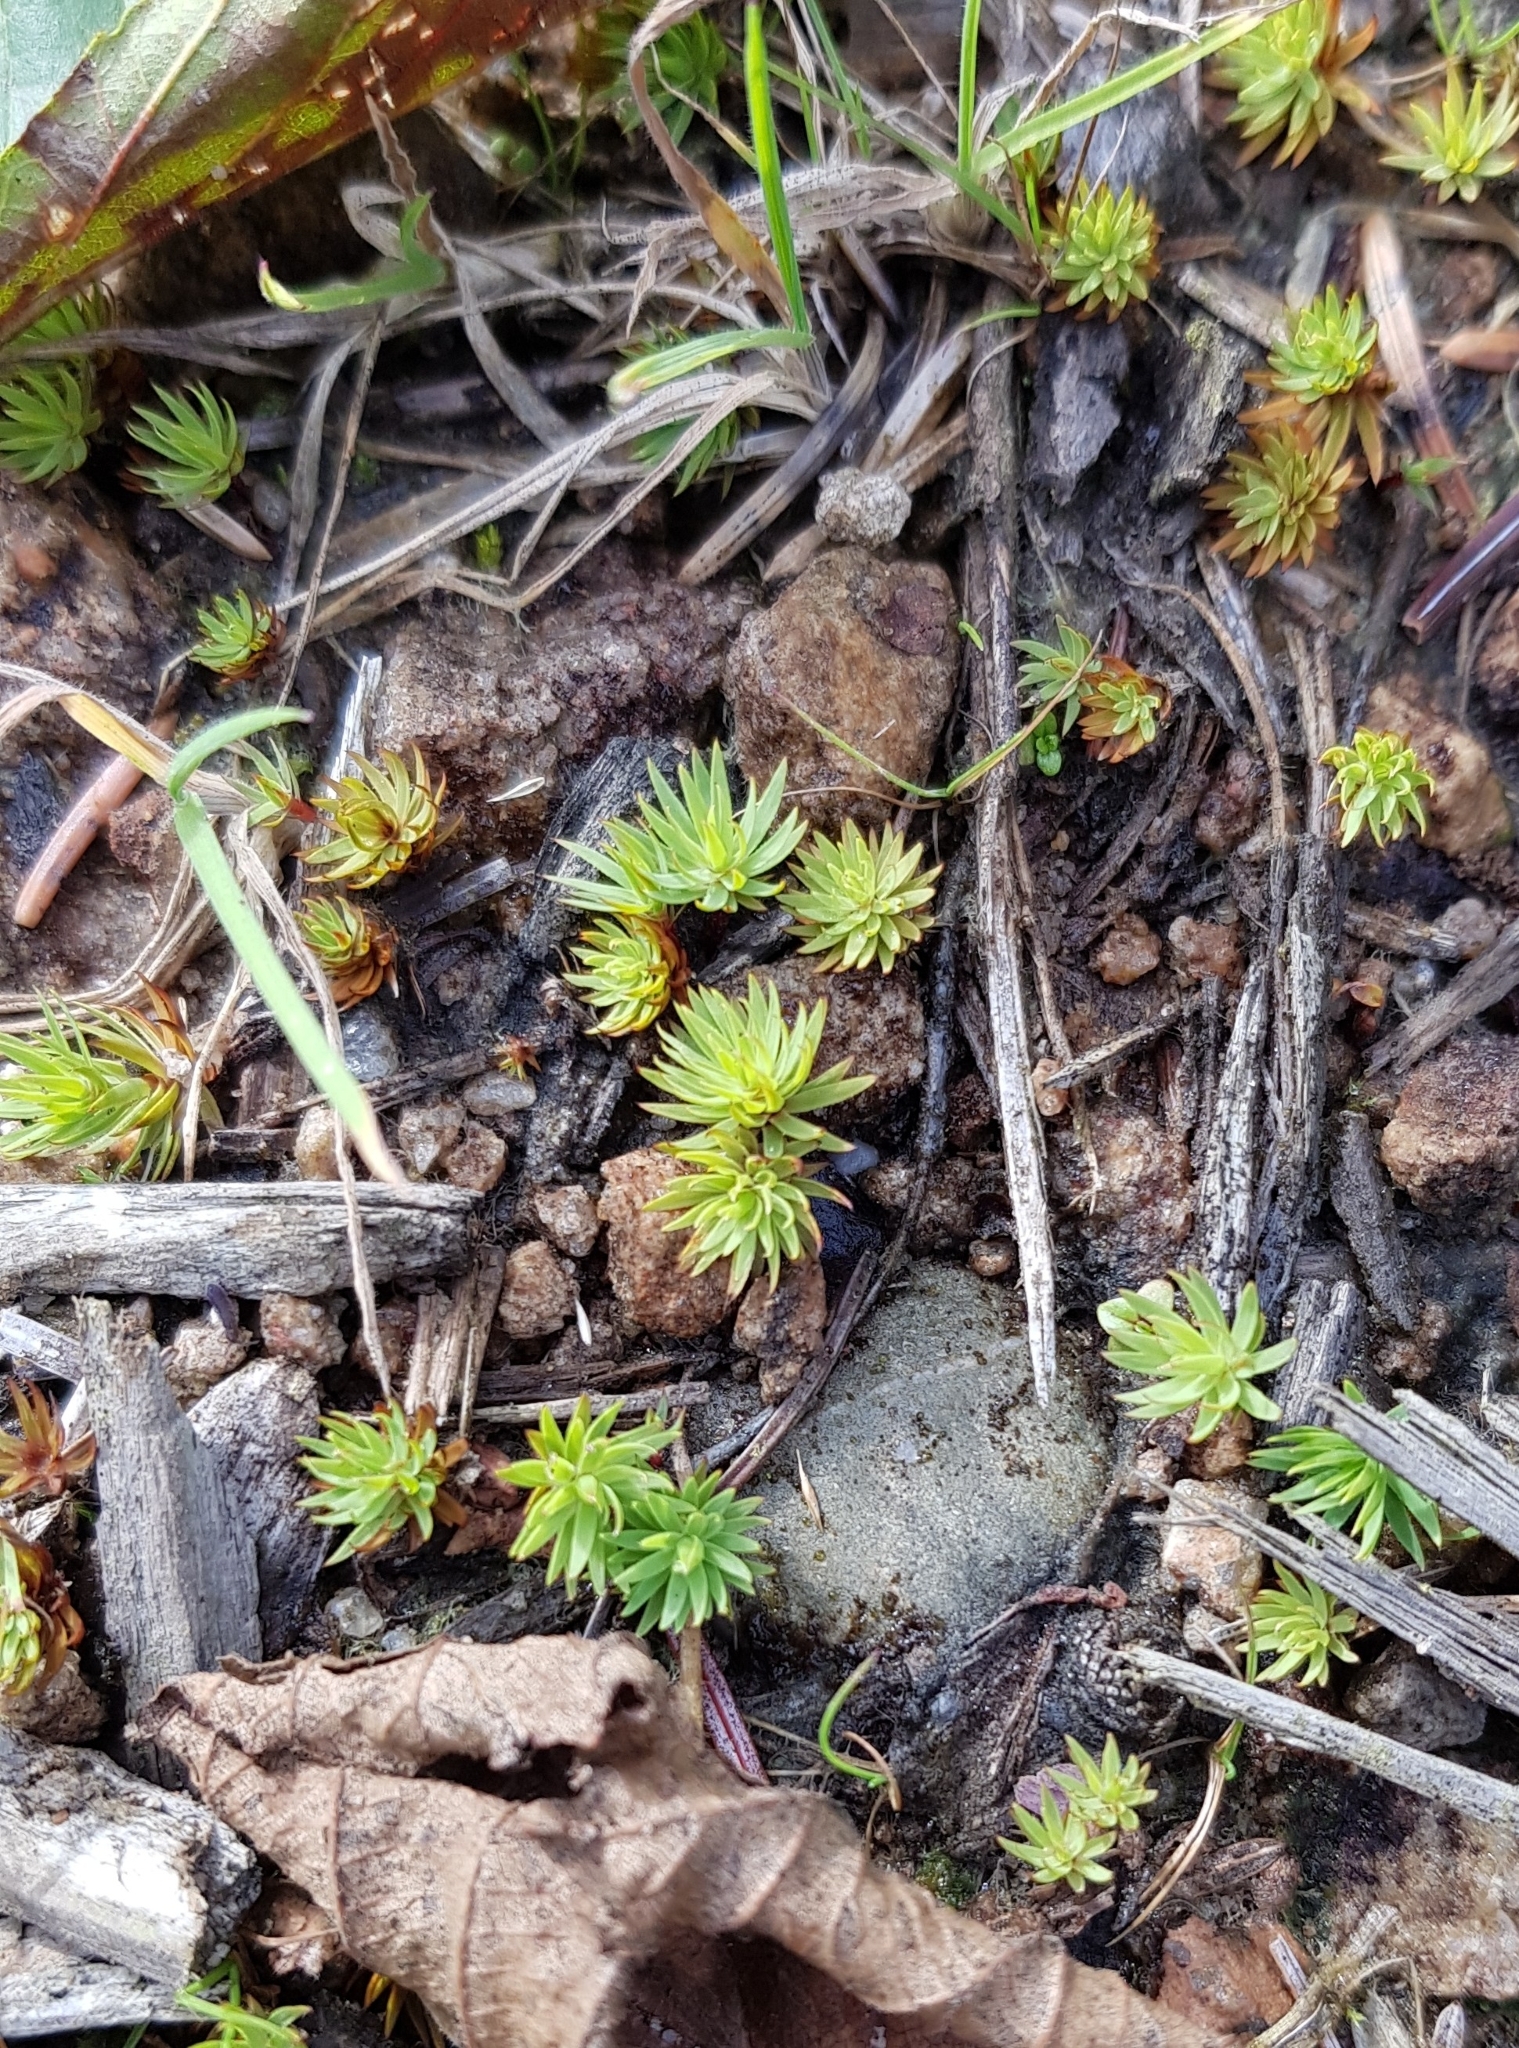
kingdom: Plantae
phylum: Bryophyta
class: Polytrichopsida
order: Polytrichales
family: Polytrichaceae
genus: Pogonatum
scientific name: Pogonatum urnigerum
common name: Urn hair moss
